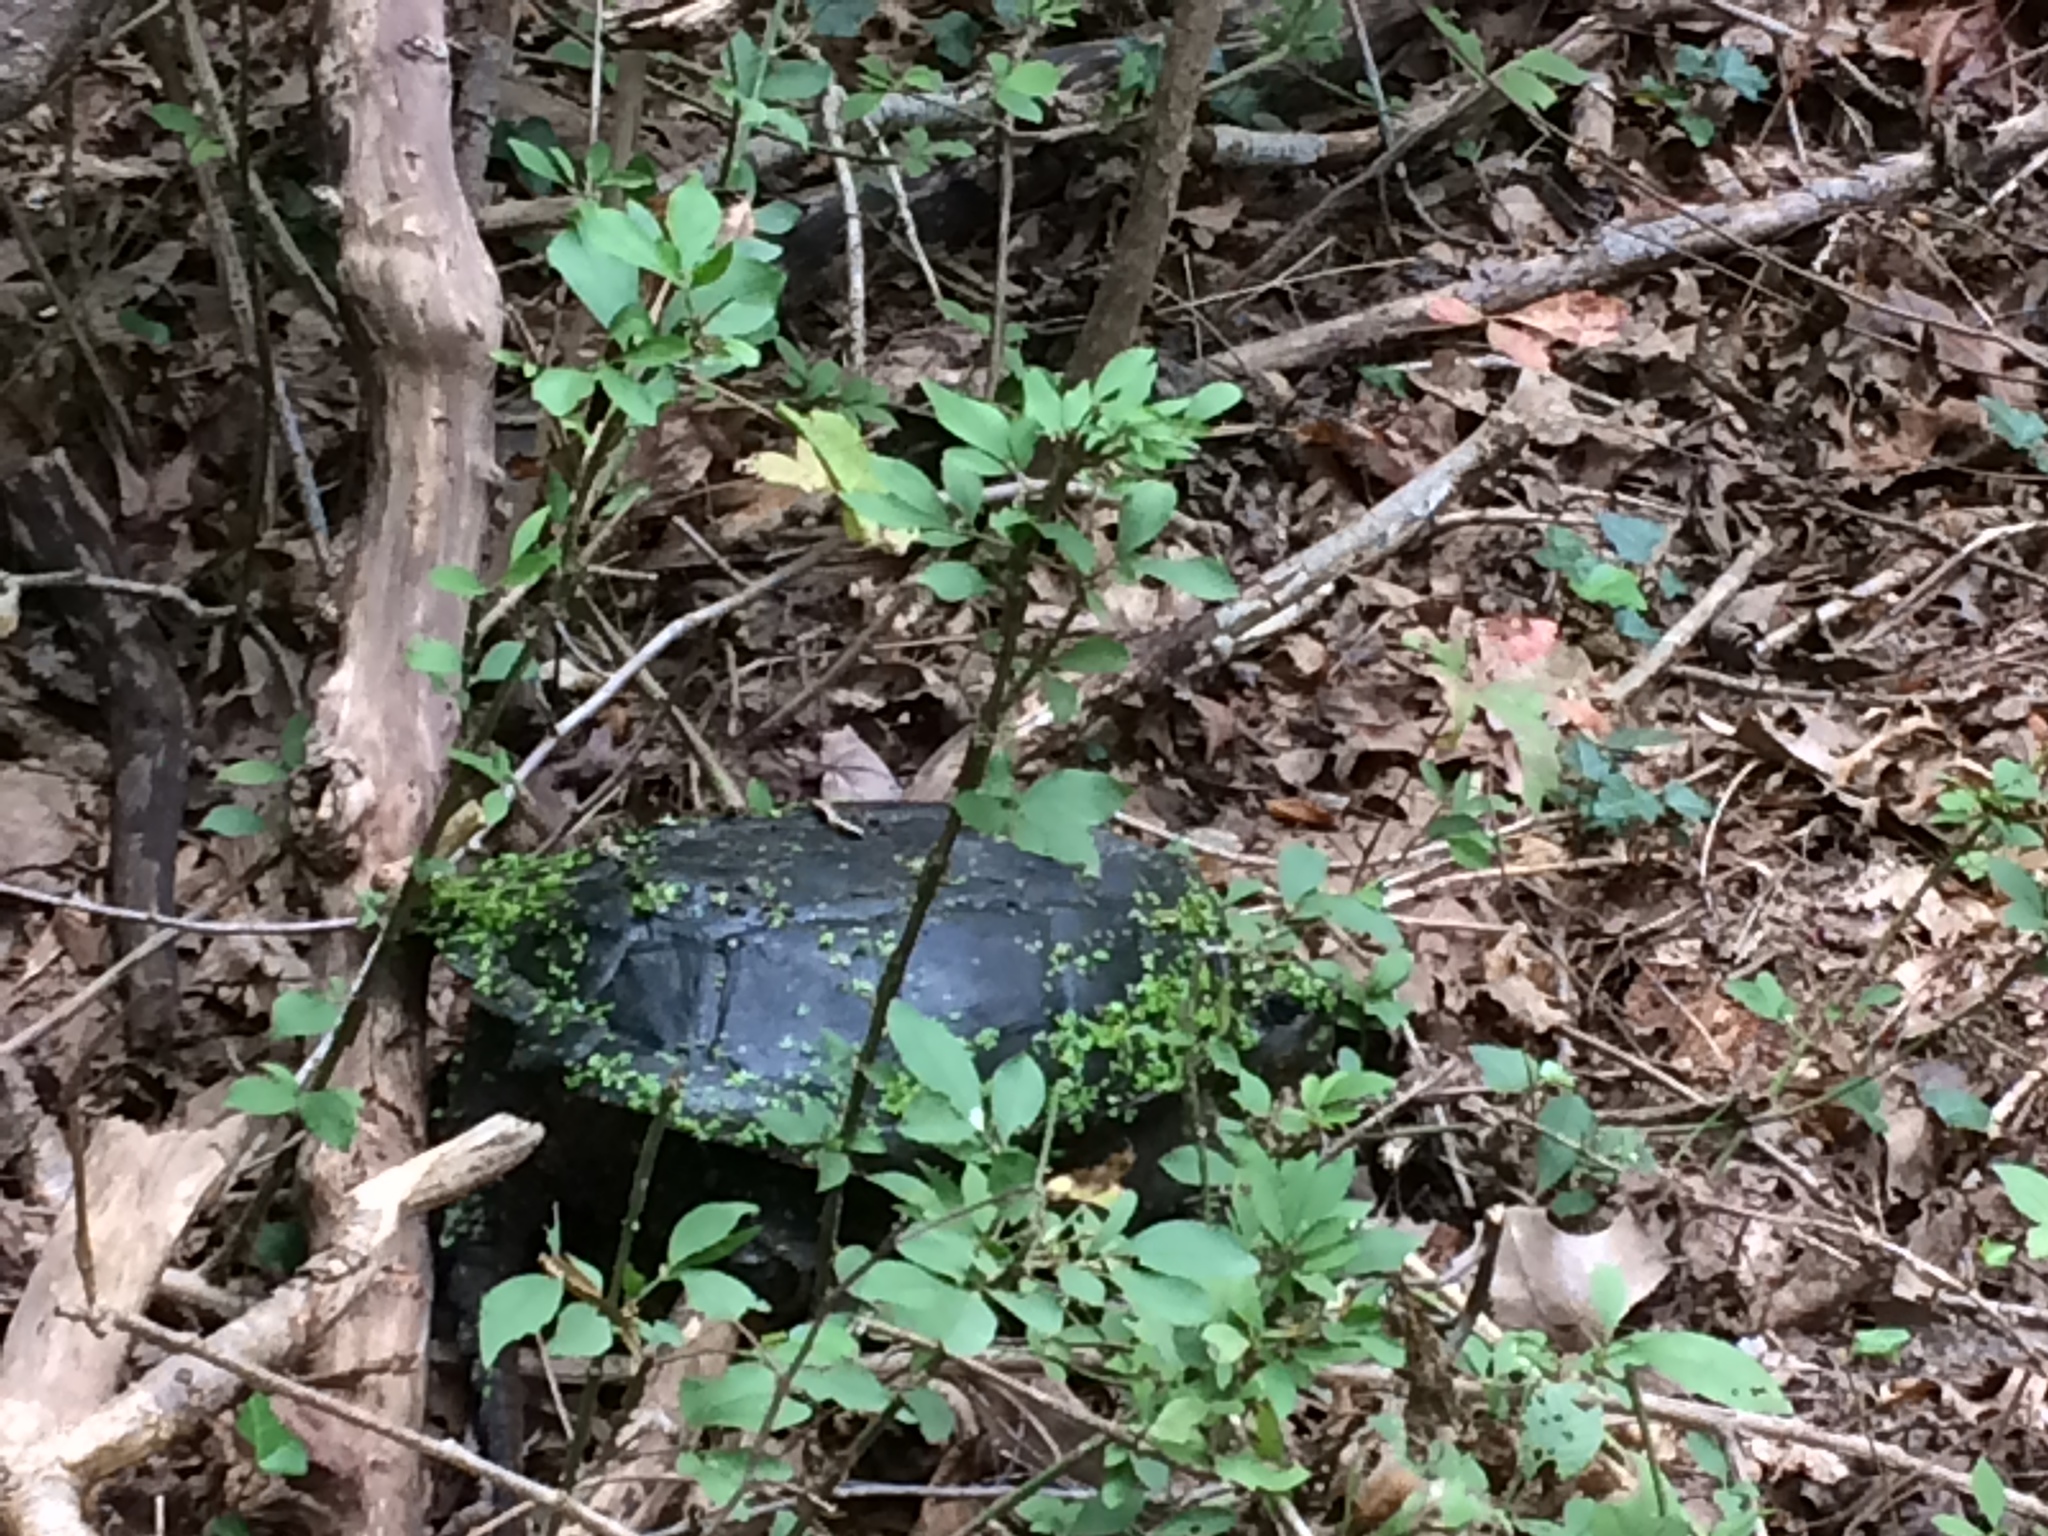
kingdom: Animalia
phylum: Chordata
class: Testudines
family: Chelydridae
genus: Chelydra
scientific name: Chelydra serpentina
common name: Common snapping turtle
